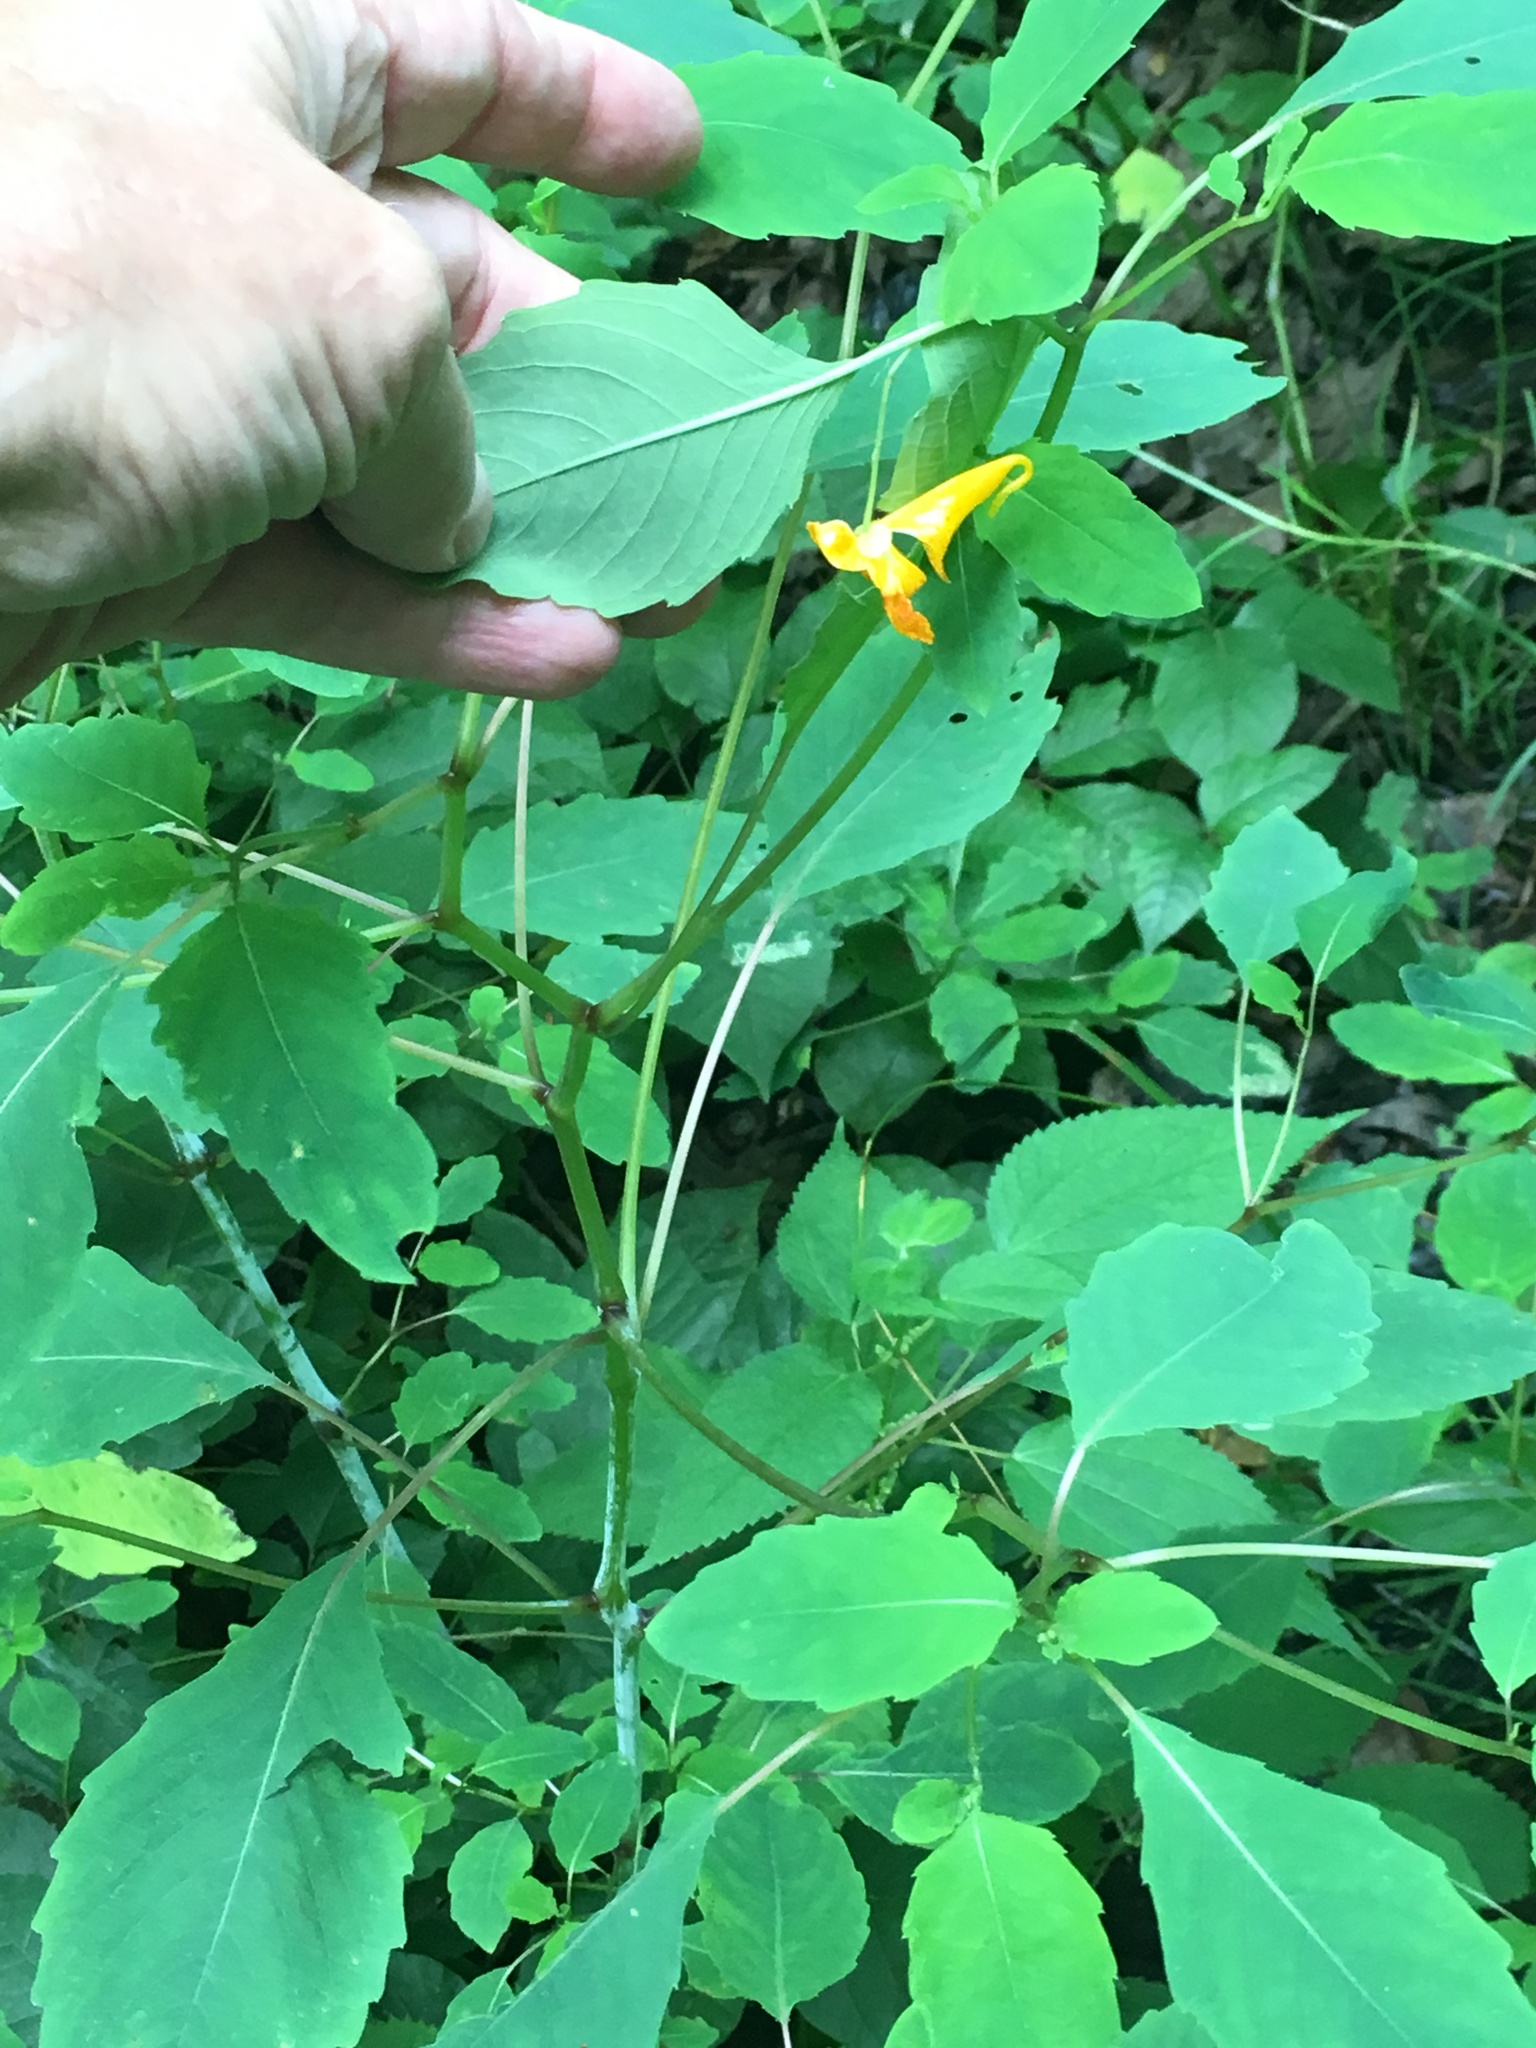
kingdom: Plantae
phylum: Tracheophyta
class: Magnoliopsida
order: Ericales
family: Balsaminaceae
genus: Impatiens
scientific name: Impatiens capensis
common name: Orange balsam
